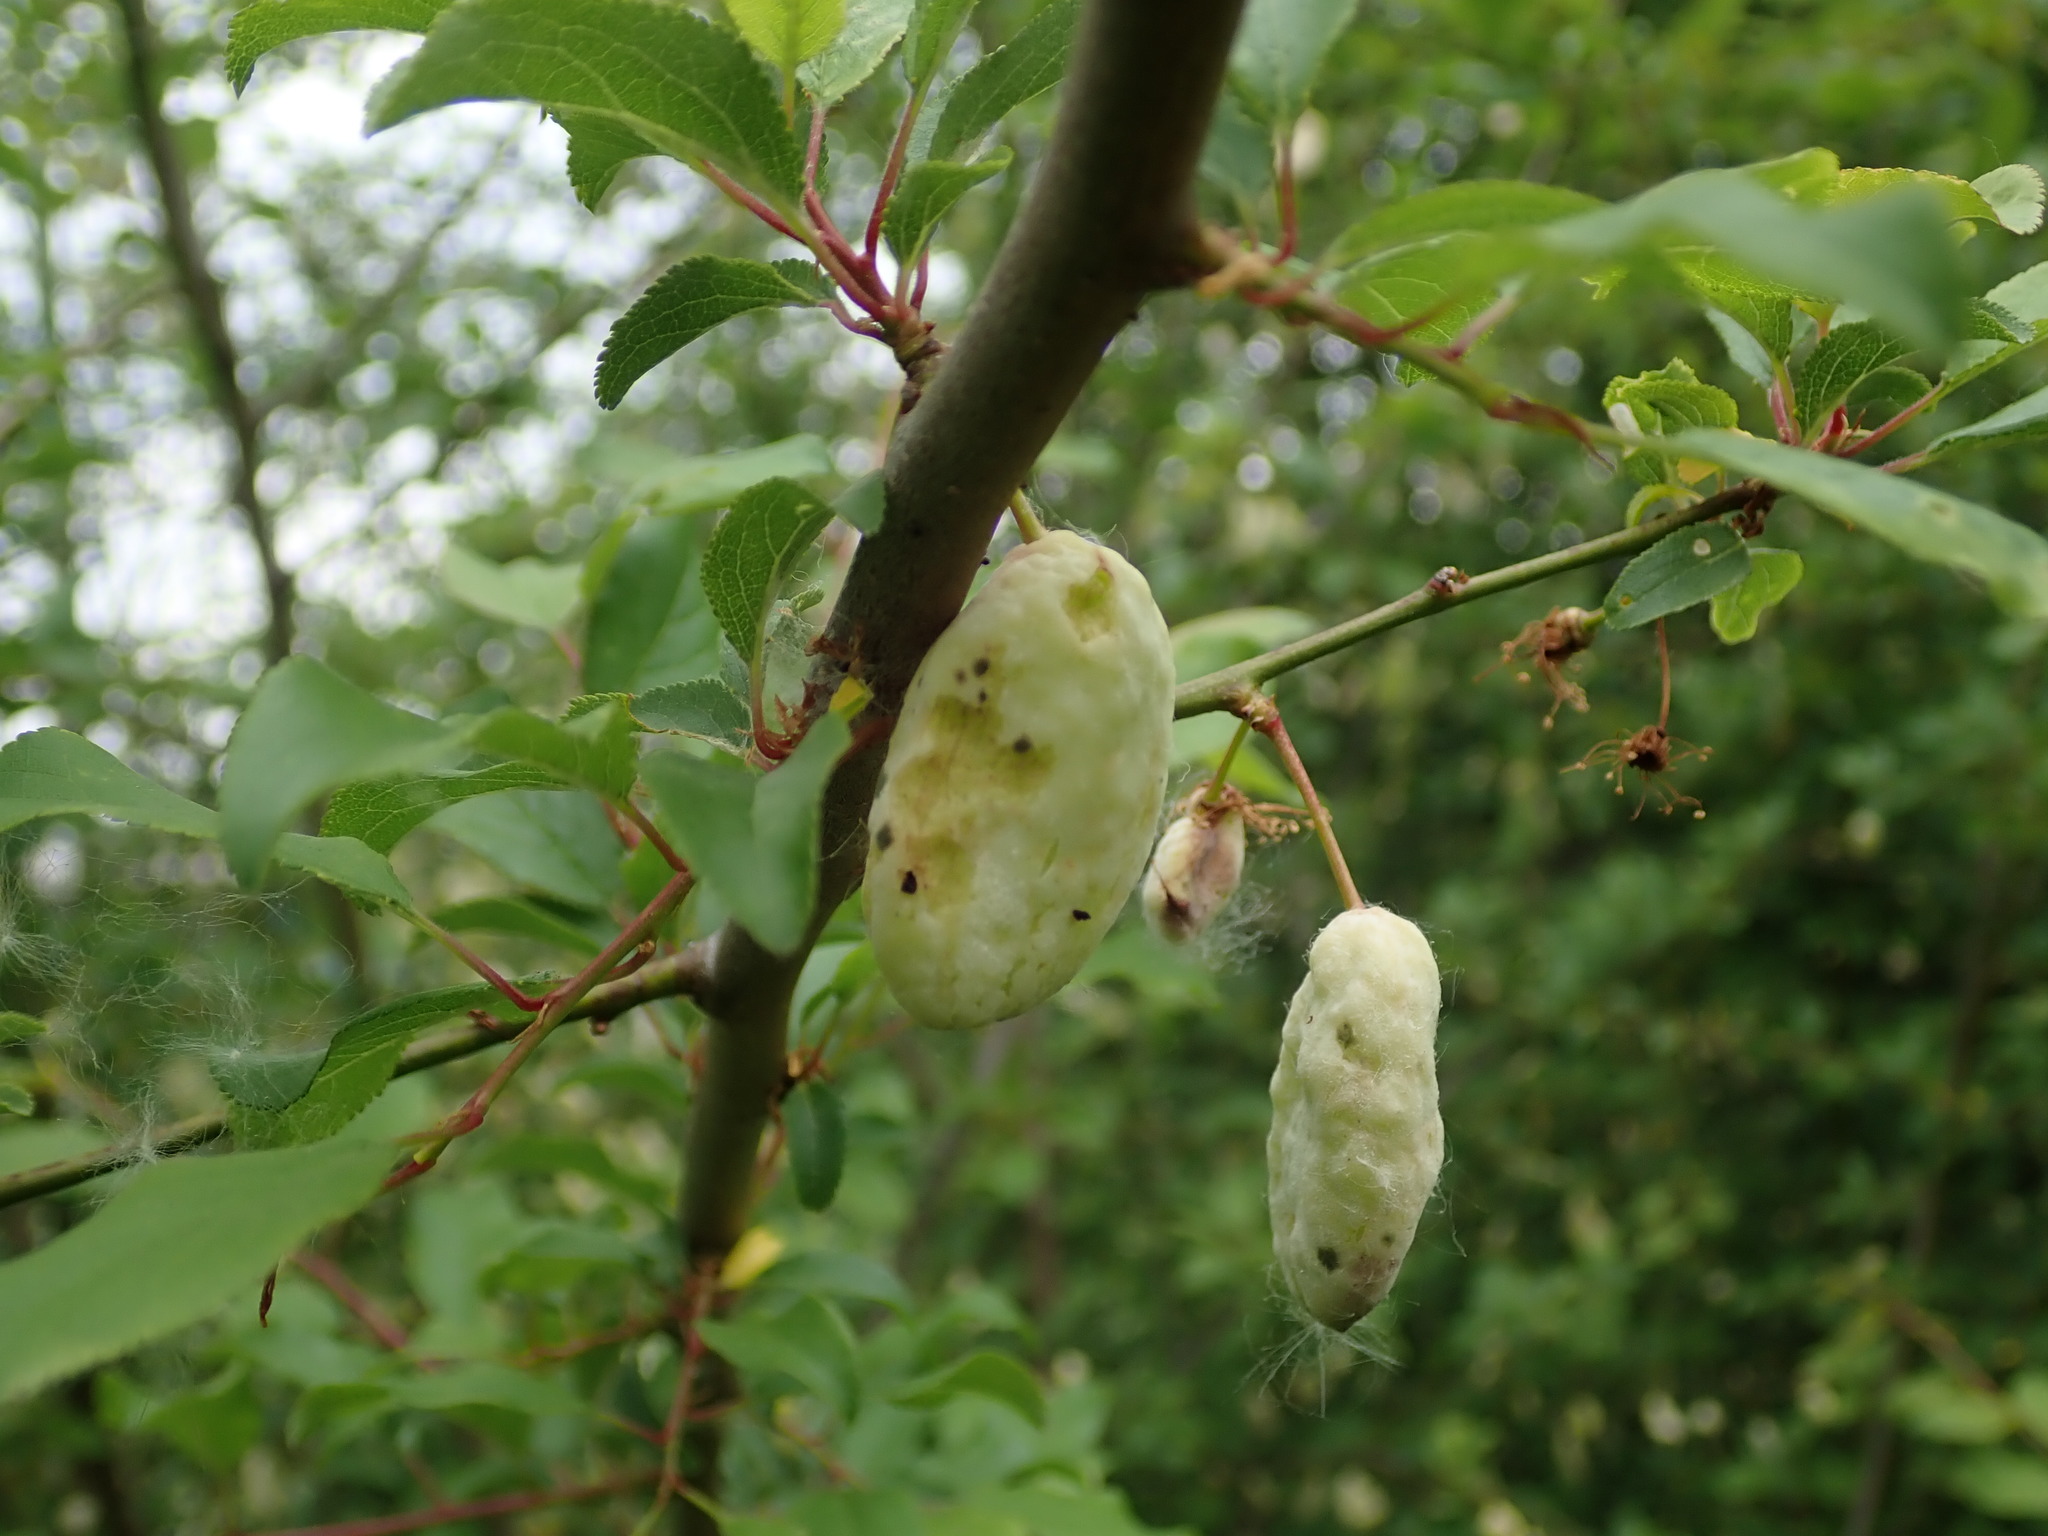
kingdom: Fungi
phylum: Ascomycota
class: Taphrinomycetes
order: Taphrinales
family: Taphrinaceae
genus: Taphrina
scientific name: Taphrina pruni
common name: Pocket plum
